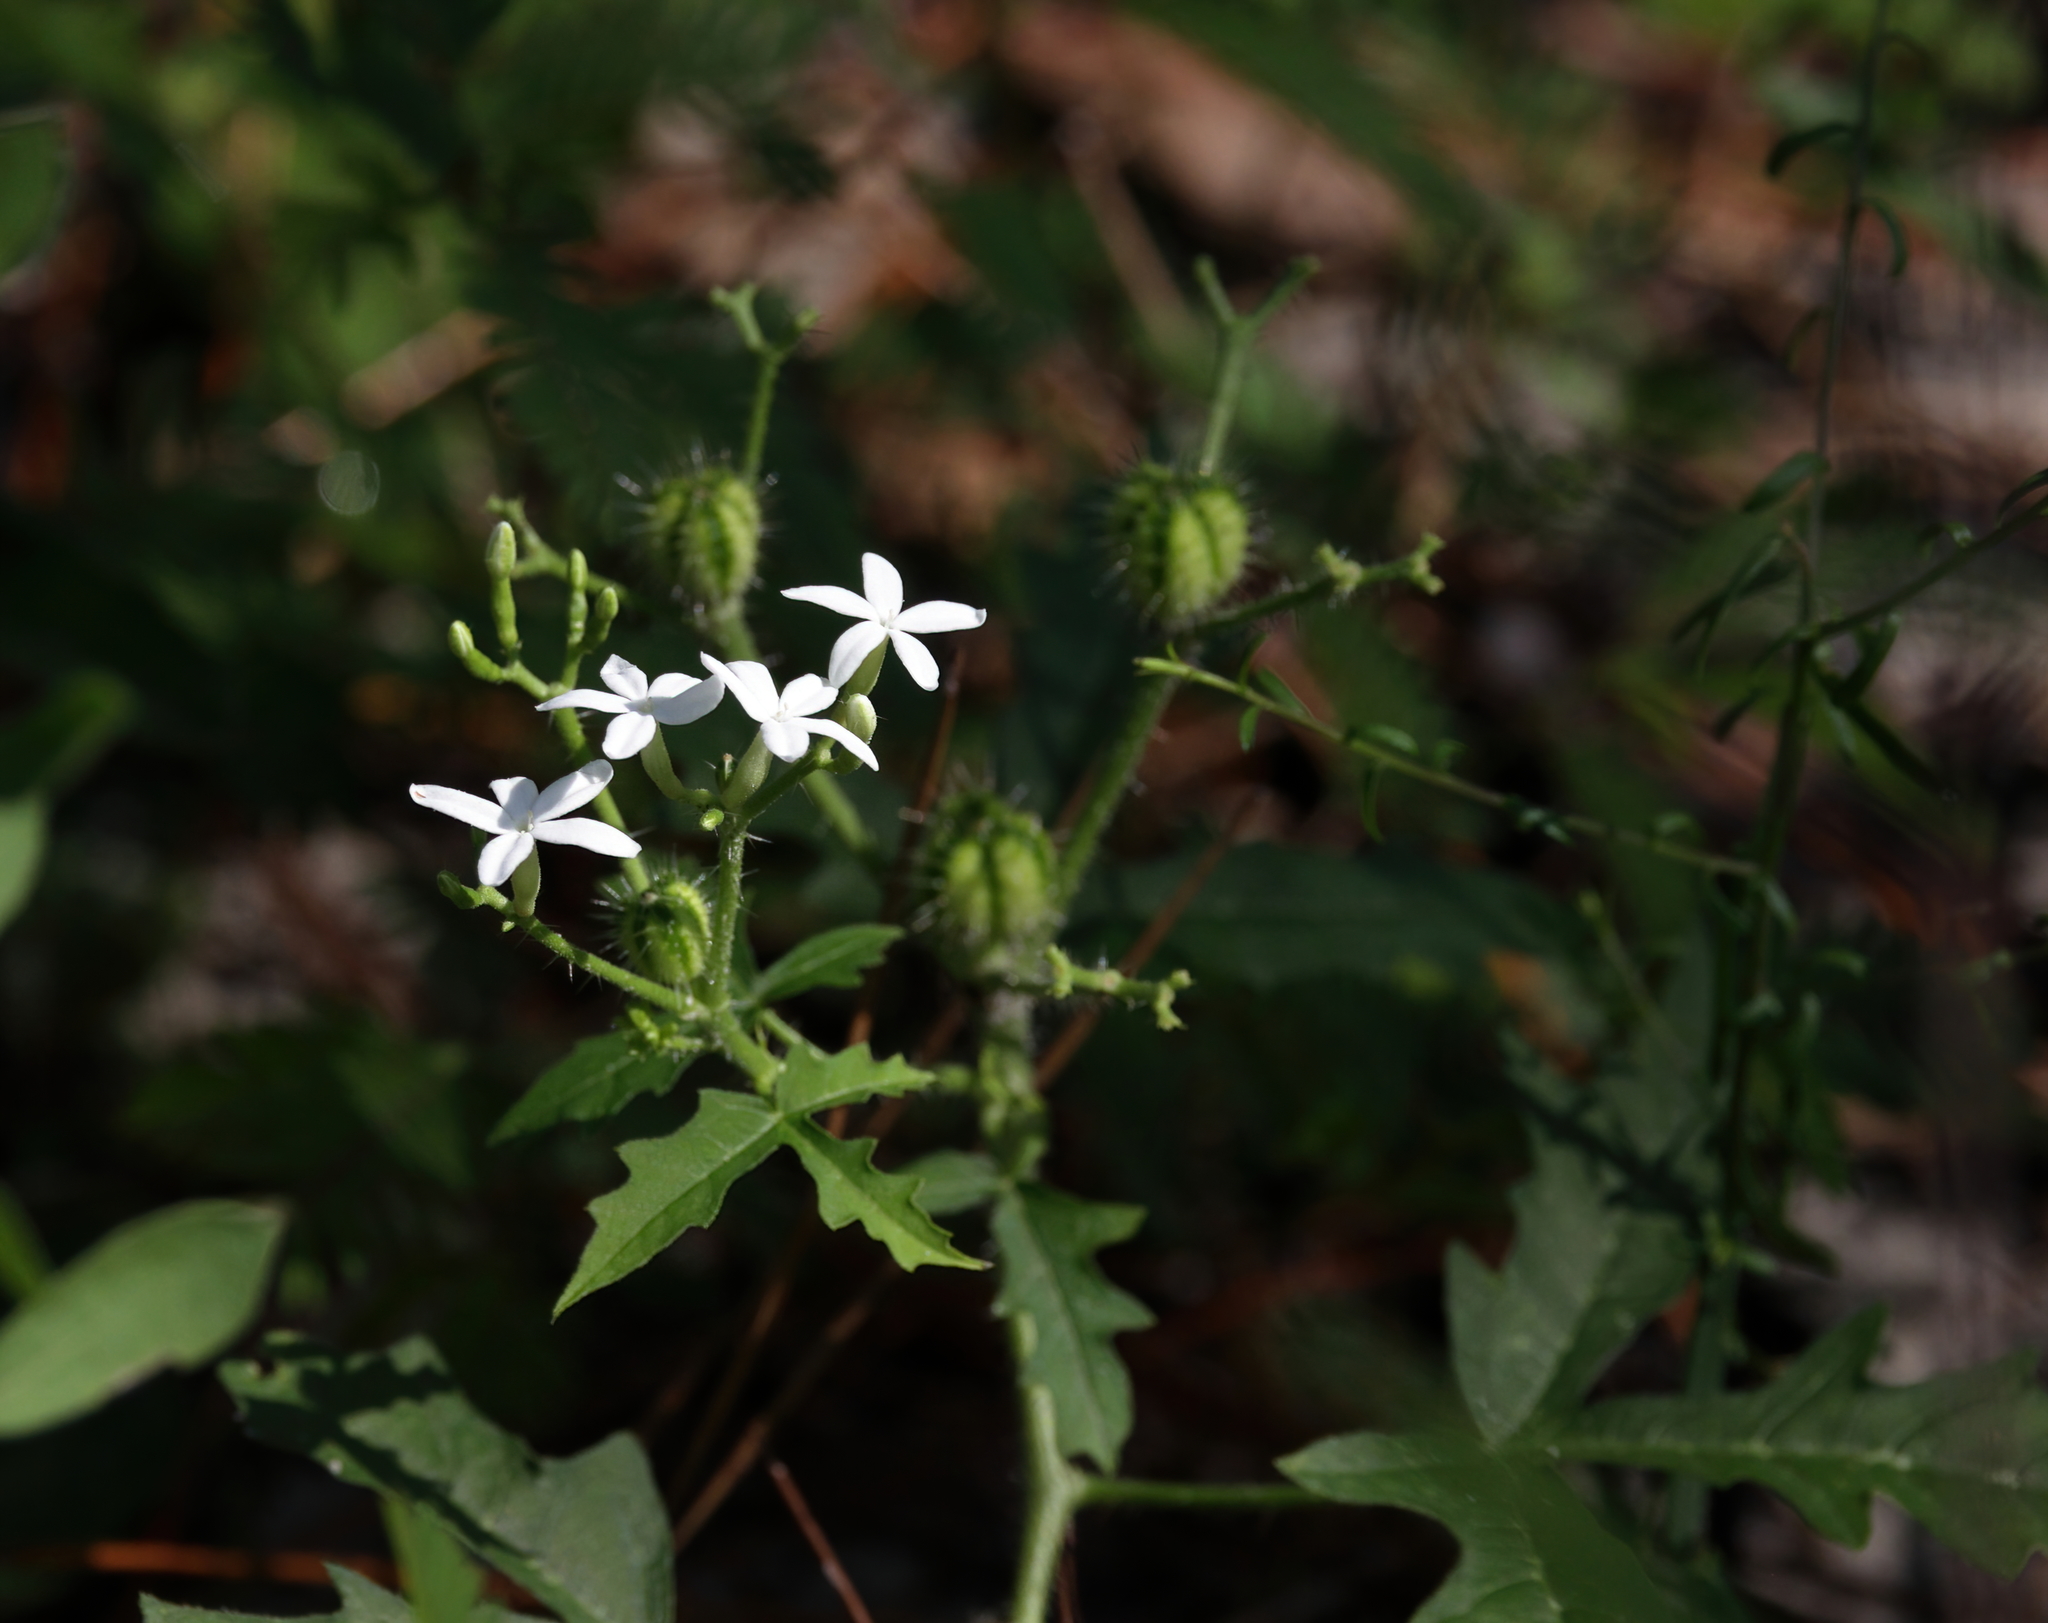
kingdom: Plantae
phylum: Tracheophyta
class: Magnoliopsida
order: Malpighiales
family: Euphorbiaceae
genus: Cnidoscolus
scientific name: Cnidoscolus stimulosus
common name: Bull-nettle
